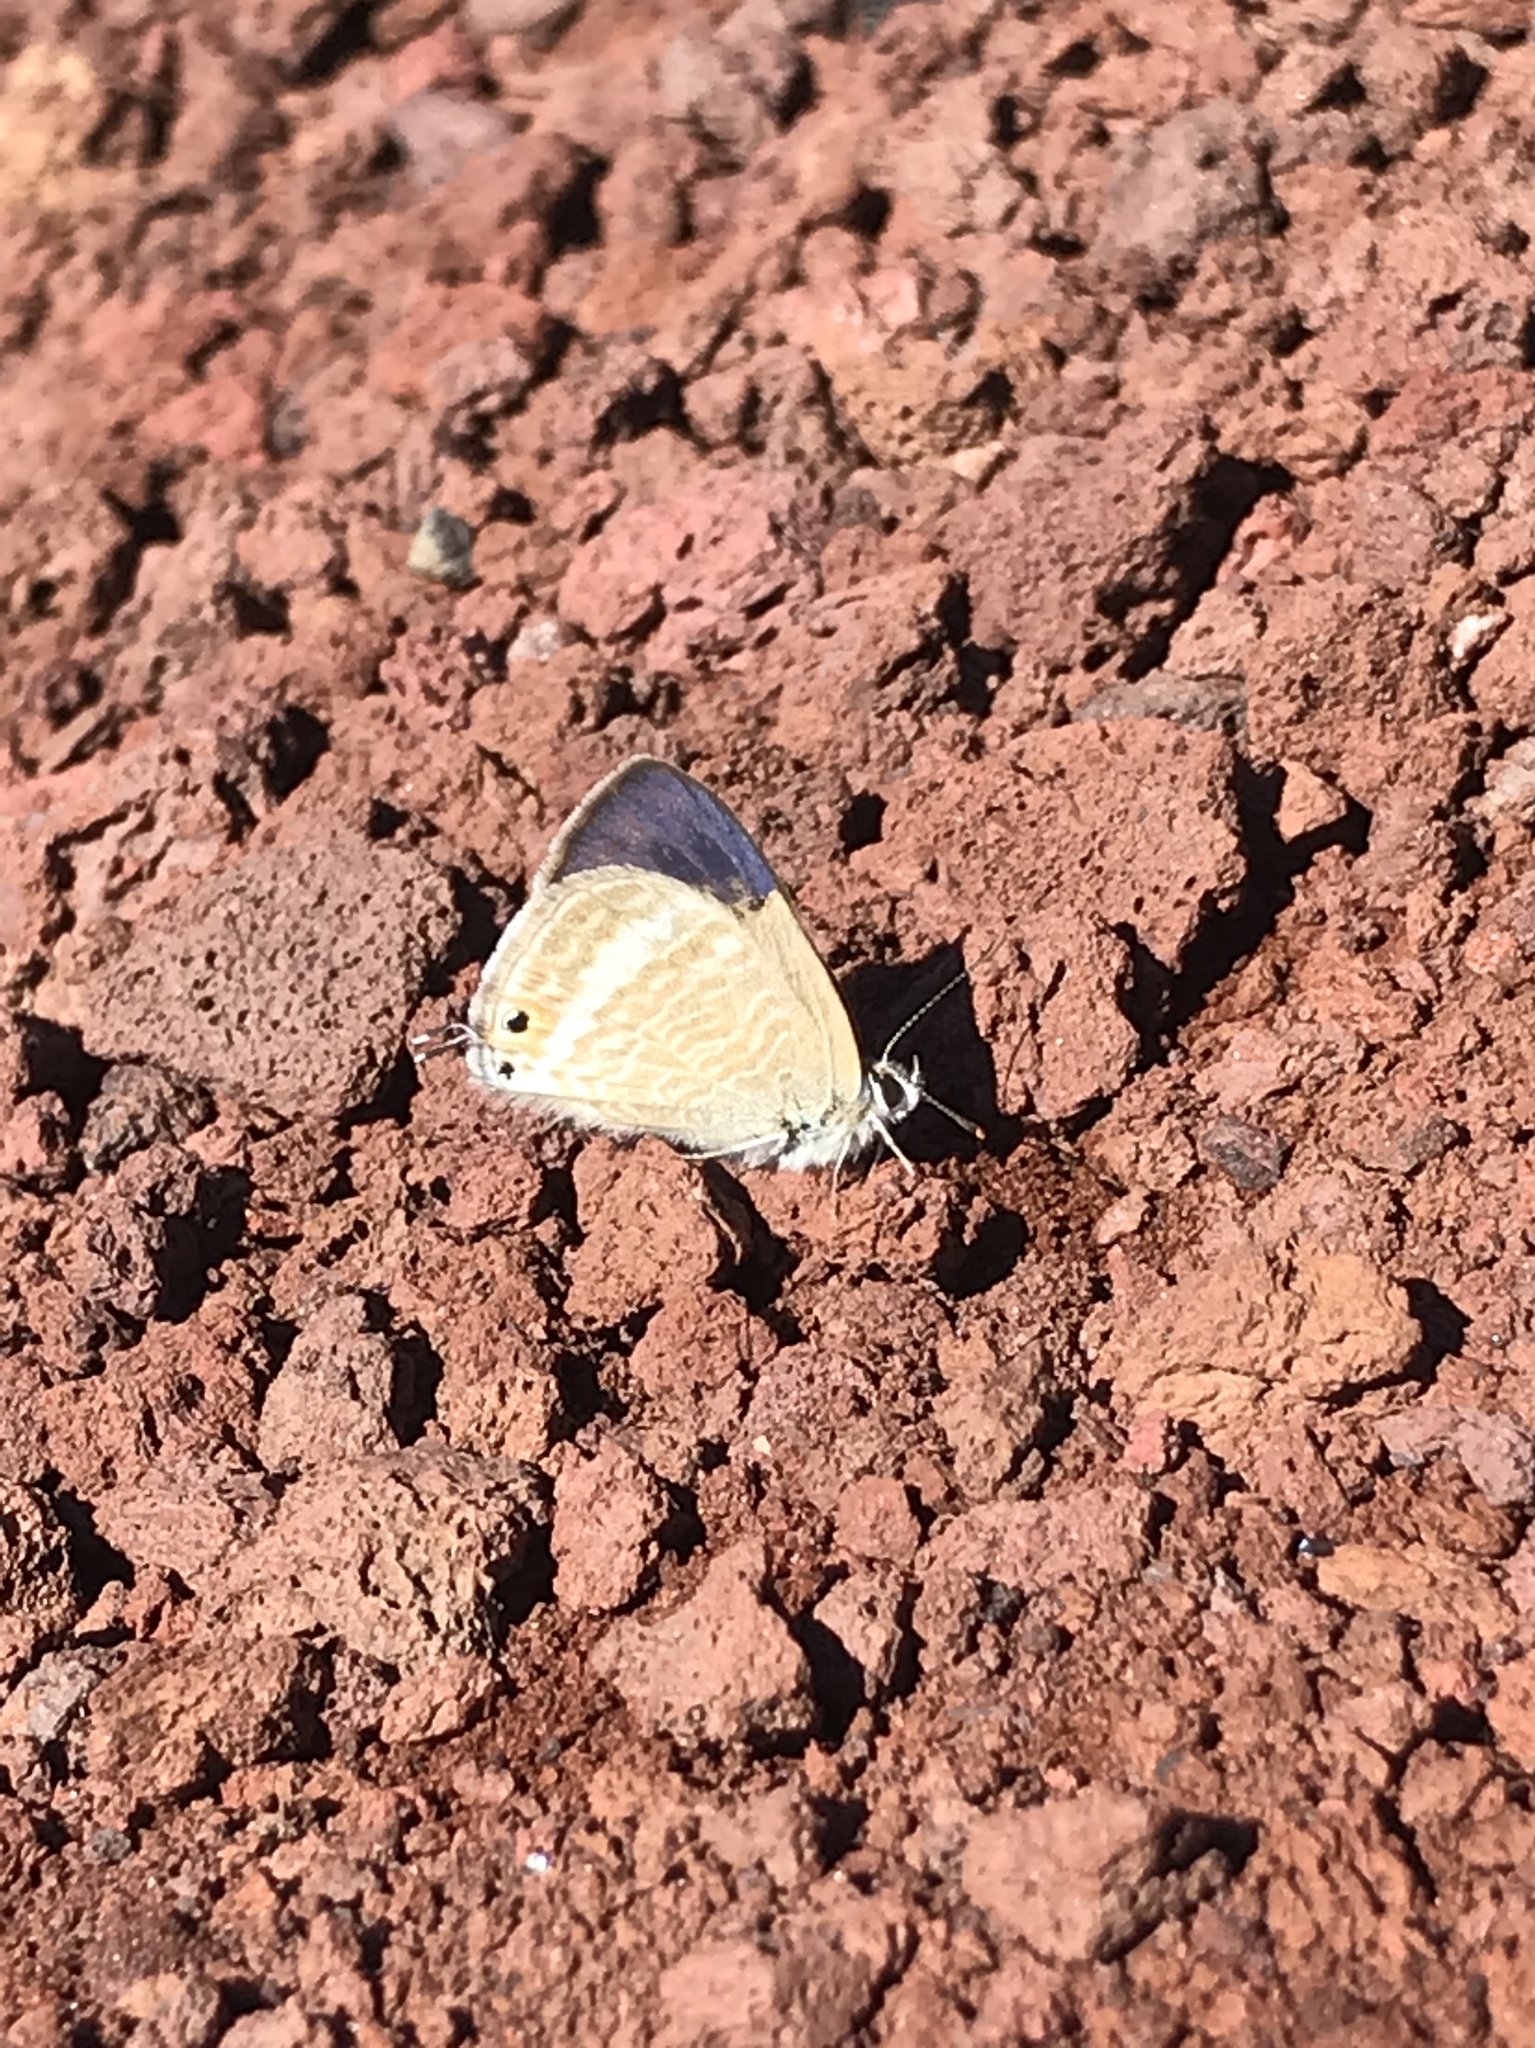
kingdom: Animalia
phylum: Arthropoda
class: Insecta
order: Lepidoptera
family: Lycaenidae
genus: Lampides
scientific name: Lampides boeticus
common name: Long-tailed blue
